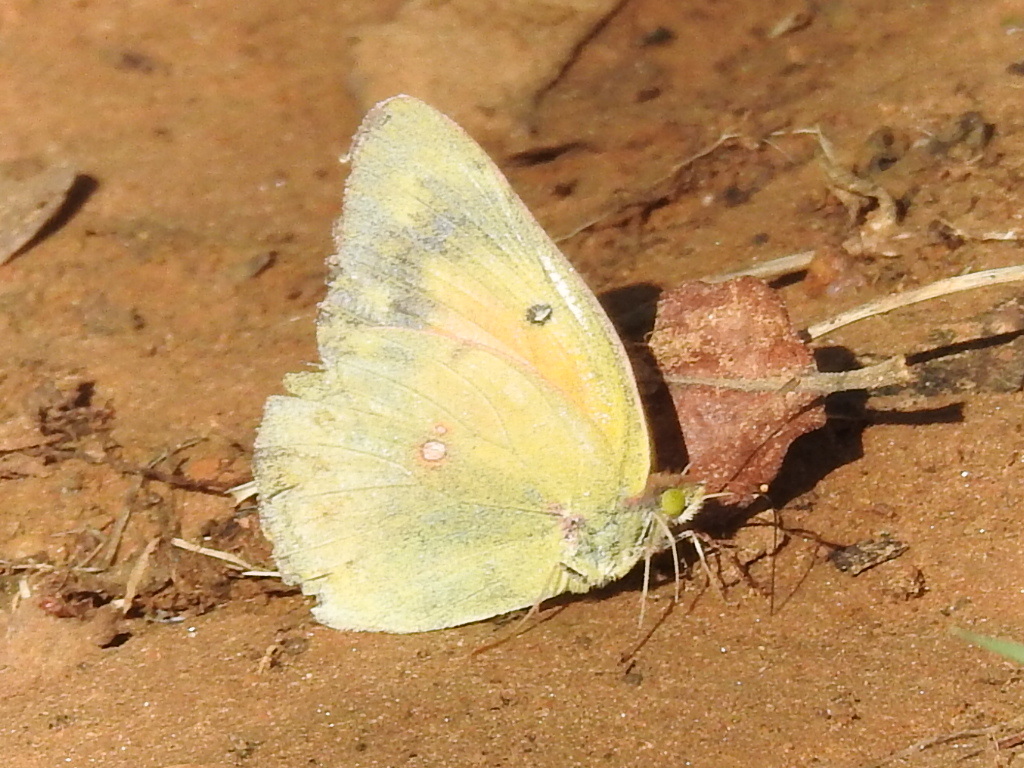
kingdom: Animalia
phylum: Arthropoda
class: Insecta
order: Lepidoptera
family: Pieridae
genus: Colias
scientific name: Colias eurytheme
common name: Alfalfa butterfly
